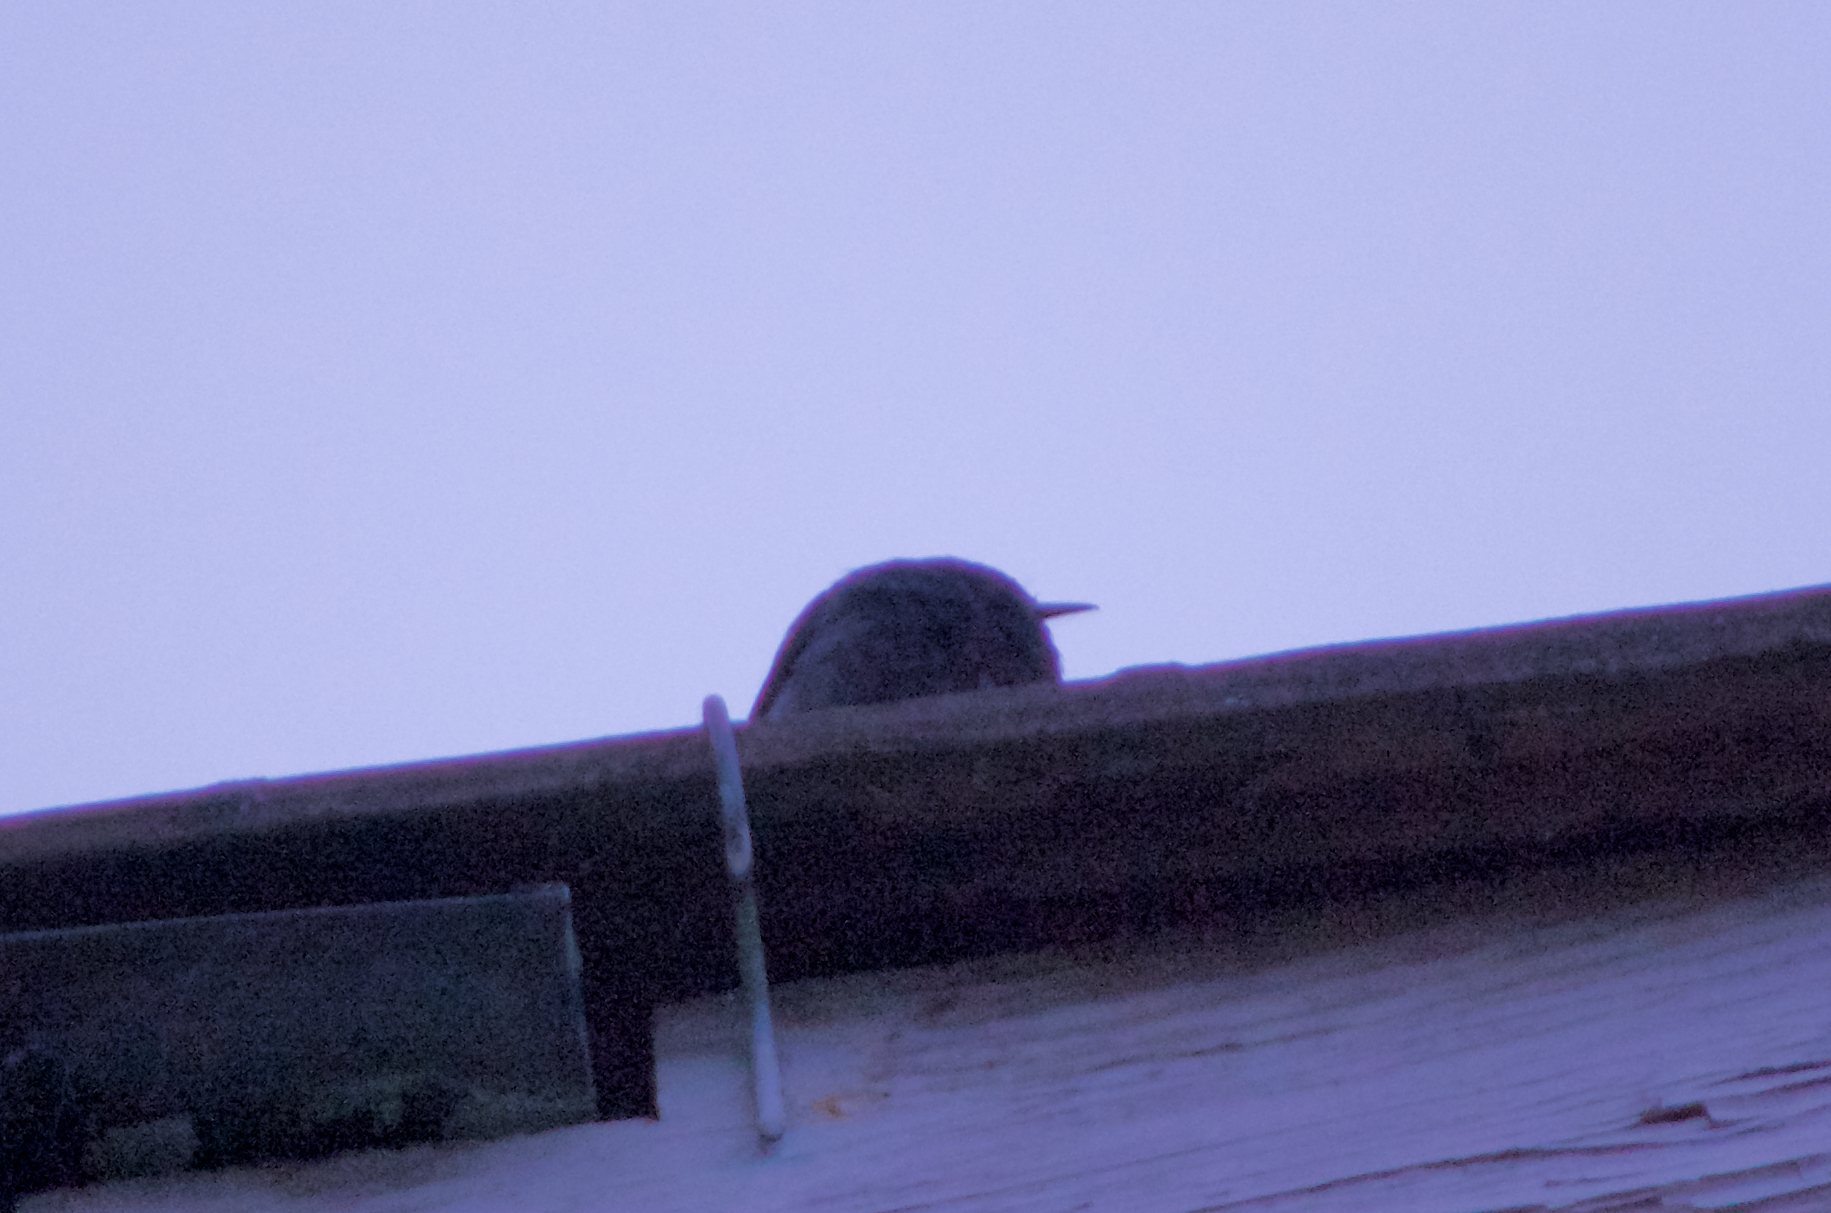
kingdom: Animalia
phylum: Chordata
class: Aves
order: Passeriformes
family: Muscicapidae
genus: Phoenicurus
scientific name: Phoenicurus ochruros
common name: Black redstart
